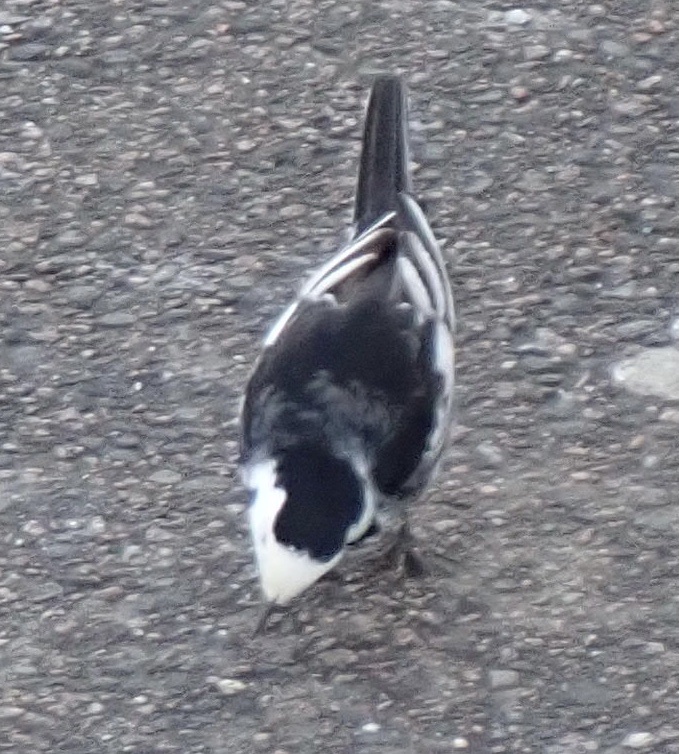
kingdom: Animalia
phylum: Chordata
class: Aves
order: Passeriformes
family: Motacillidae
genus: Motacilla
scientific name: Motacilla alba
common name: White wagtail
